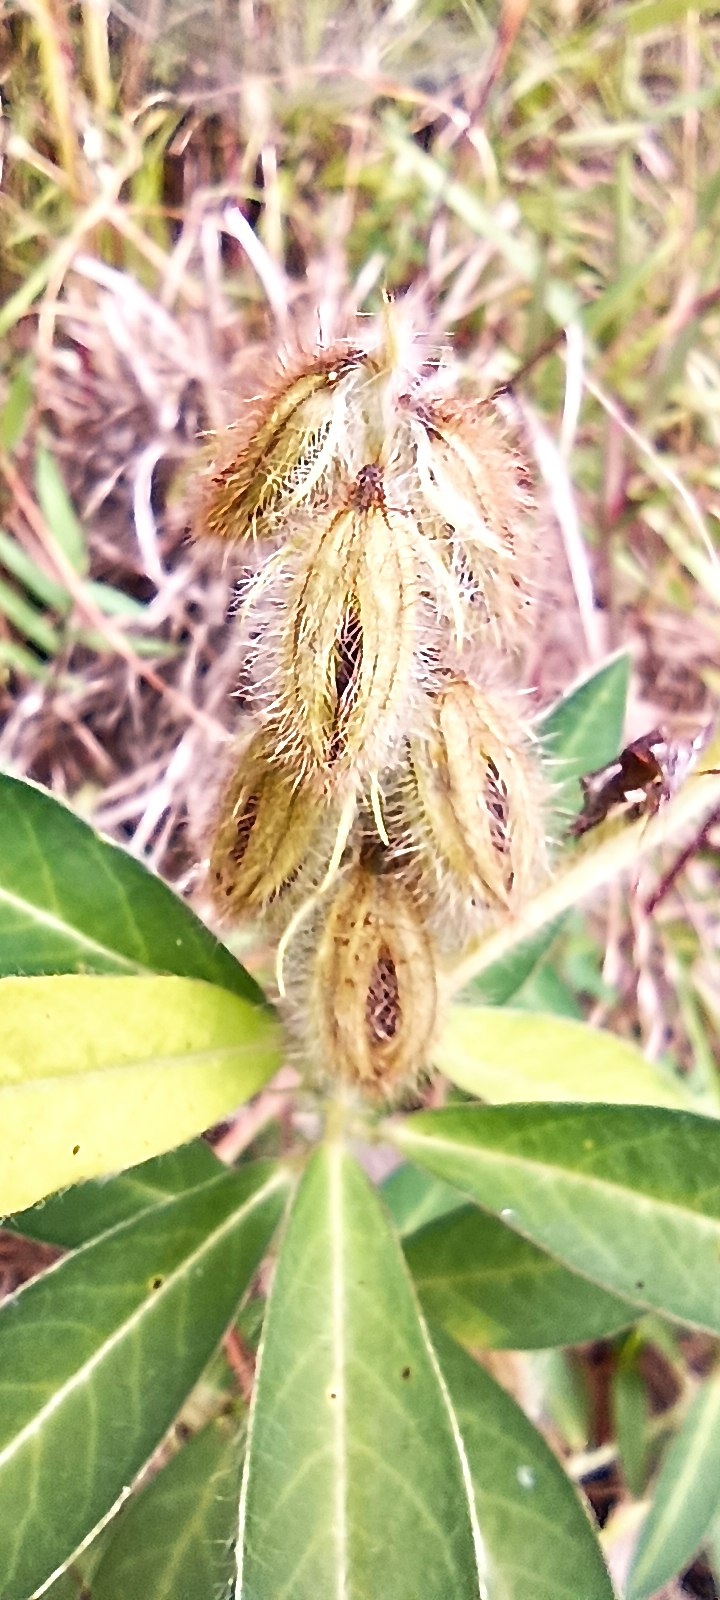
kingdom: Plantae
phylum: Tracheophyta
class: Magnoliopsida
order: Fabales
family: Fabaceae
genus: Crotalaria
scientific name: Crotalaria sessiliflora
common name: Rattlebox
